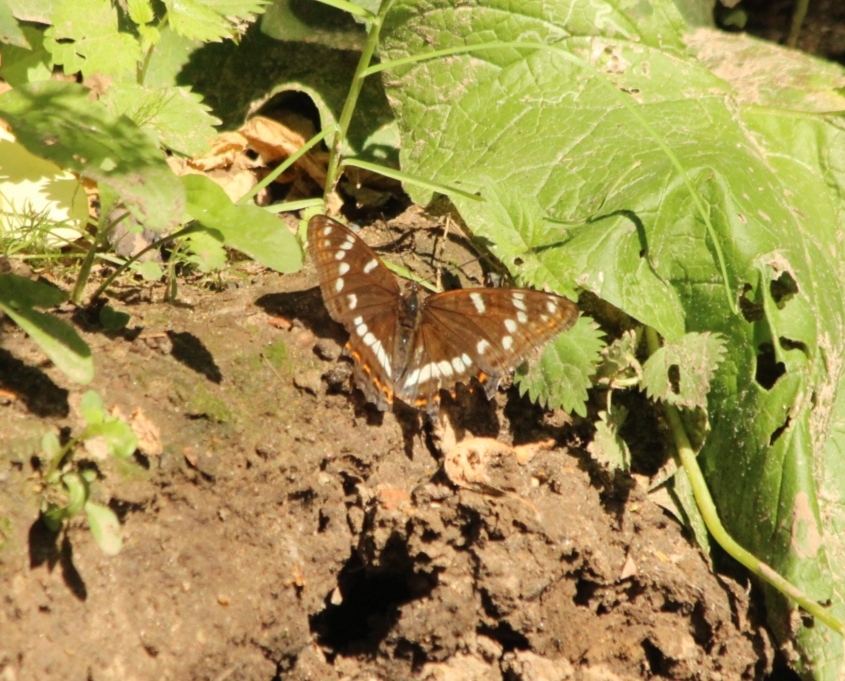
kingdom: Animalia
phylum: Arthropoda
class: Insecta
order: Lepidoptera
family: Nymphalidae
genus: Limenitis
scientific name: Limenitis populi
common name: Poplar admiral
